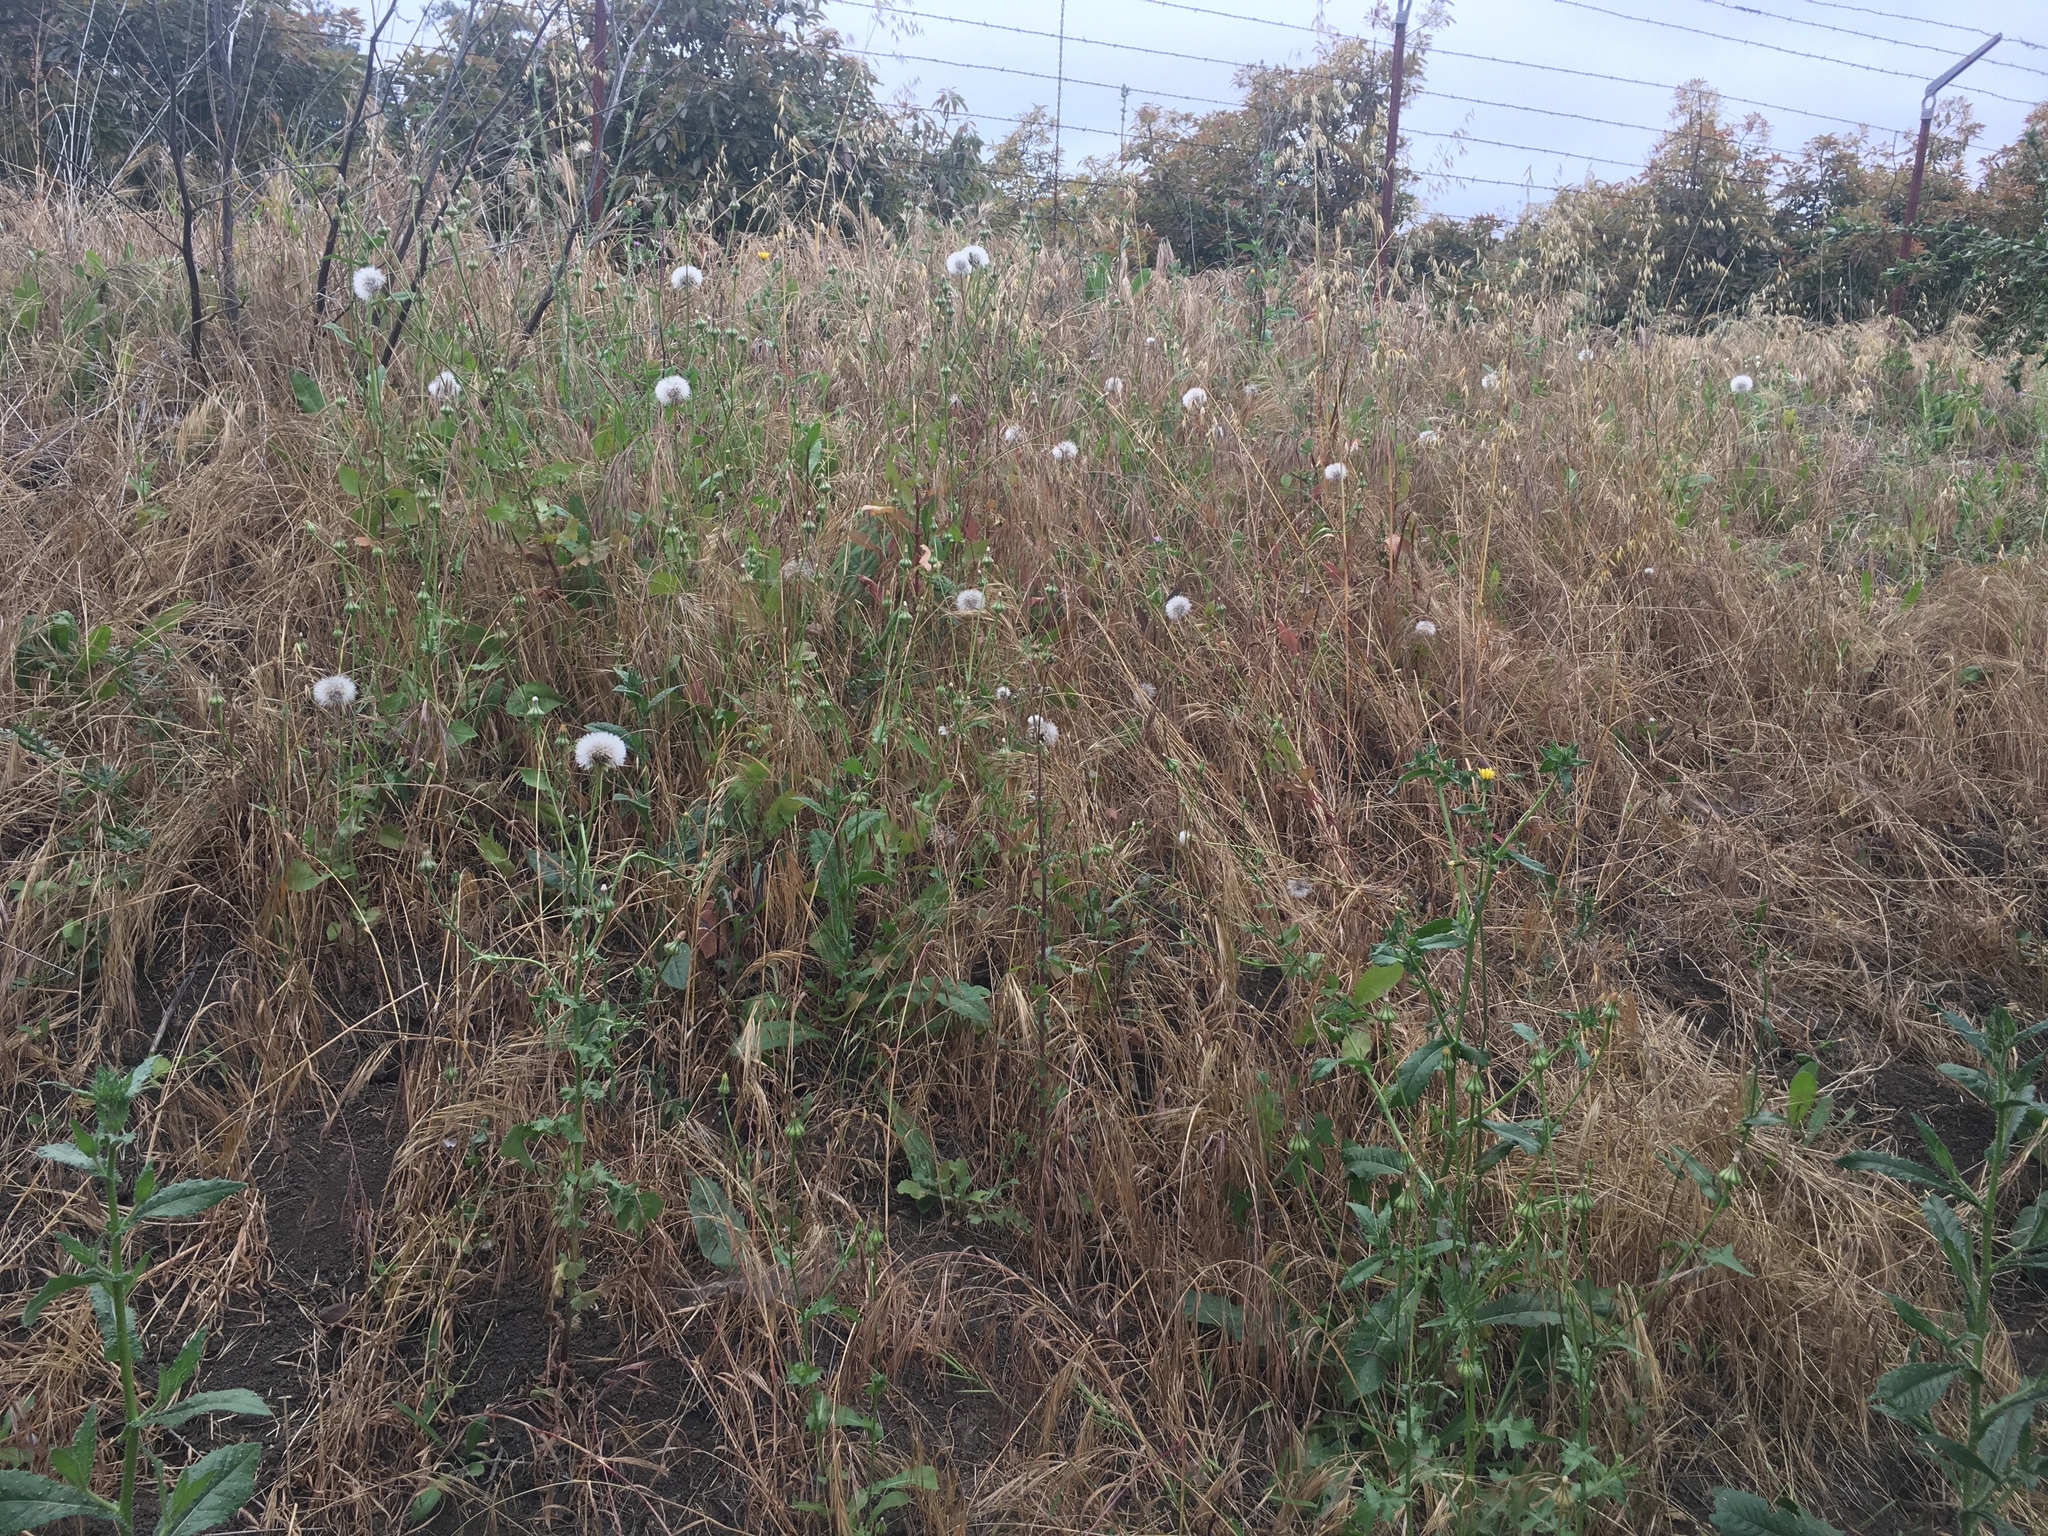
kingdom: Plantae
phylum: Tracheophyta
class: Magnoliopsida
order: Asterales
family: Asteraceae
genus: Urospermum
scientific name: Urospermum picroides
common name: False hawkbit
